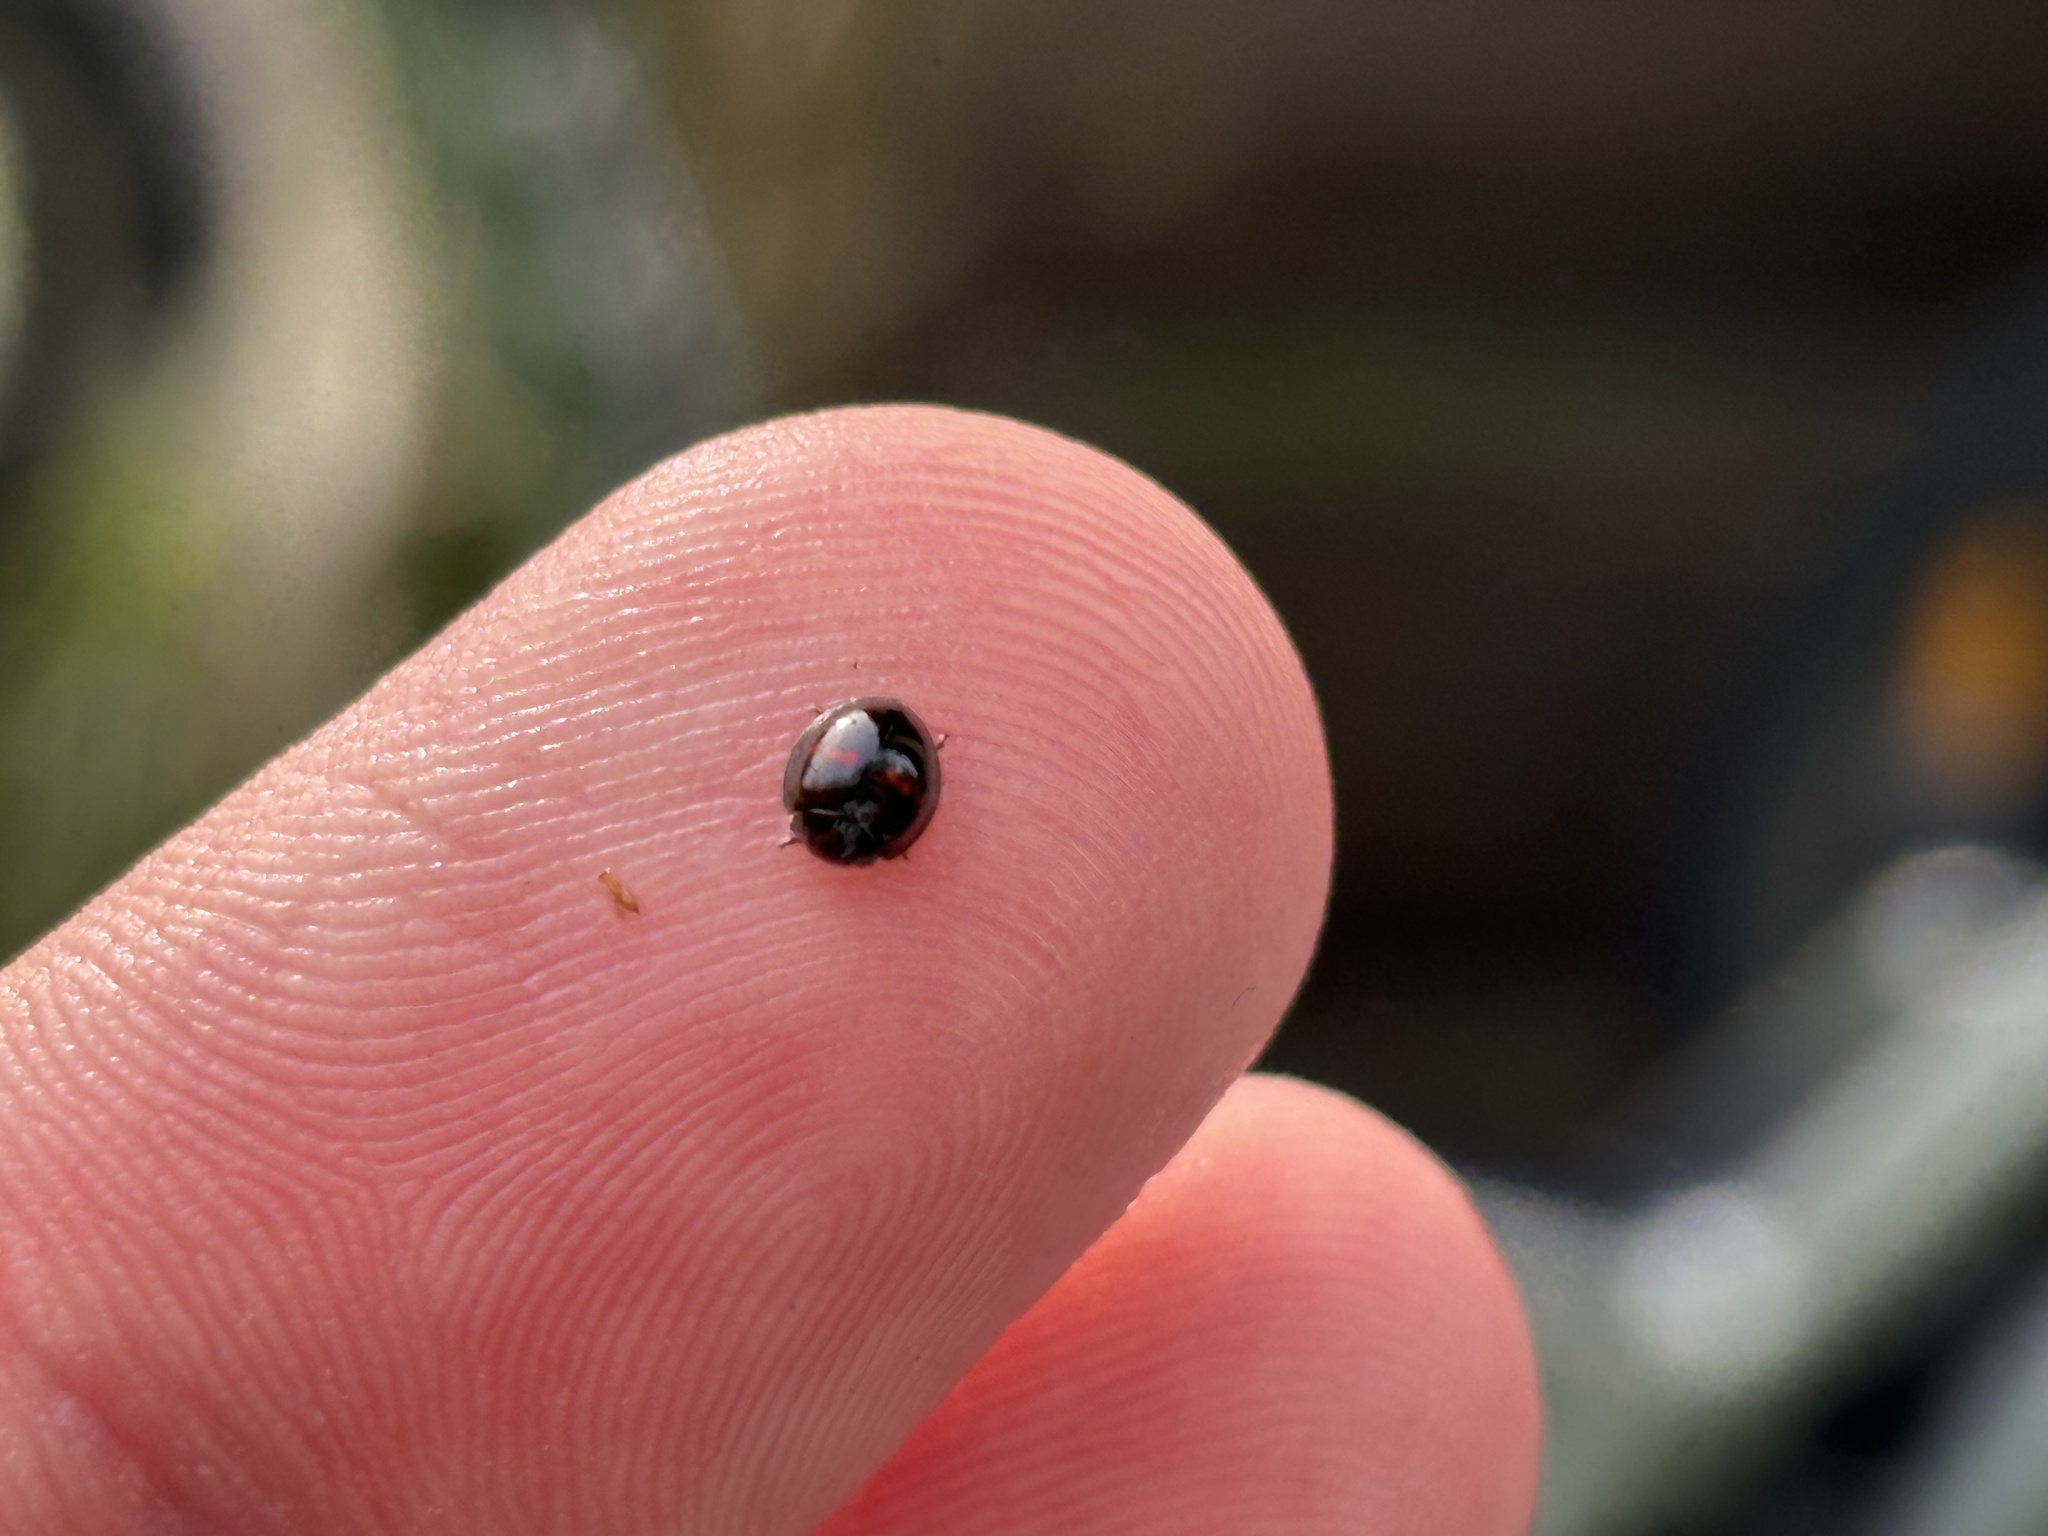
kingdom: Animalia
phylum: Arthropoda
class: Insecta
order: Coleoptera
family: Coccinellidae
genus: Chilocorus
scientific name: Chilocorus bipustulatus
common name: Heather ladybird
